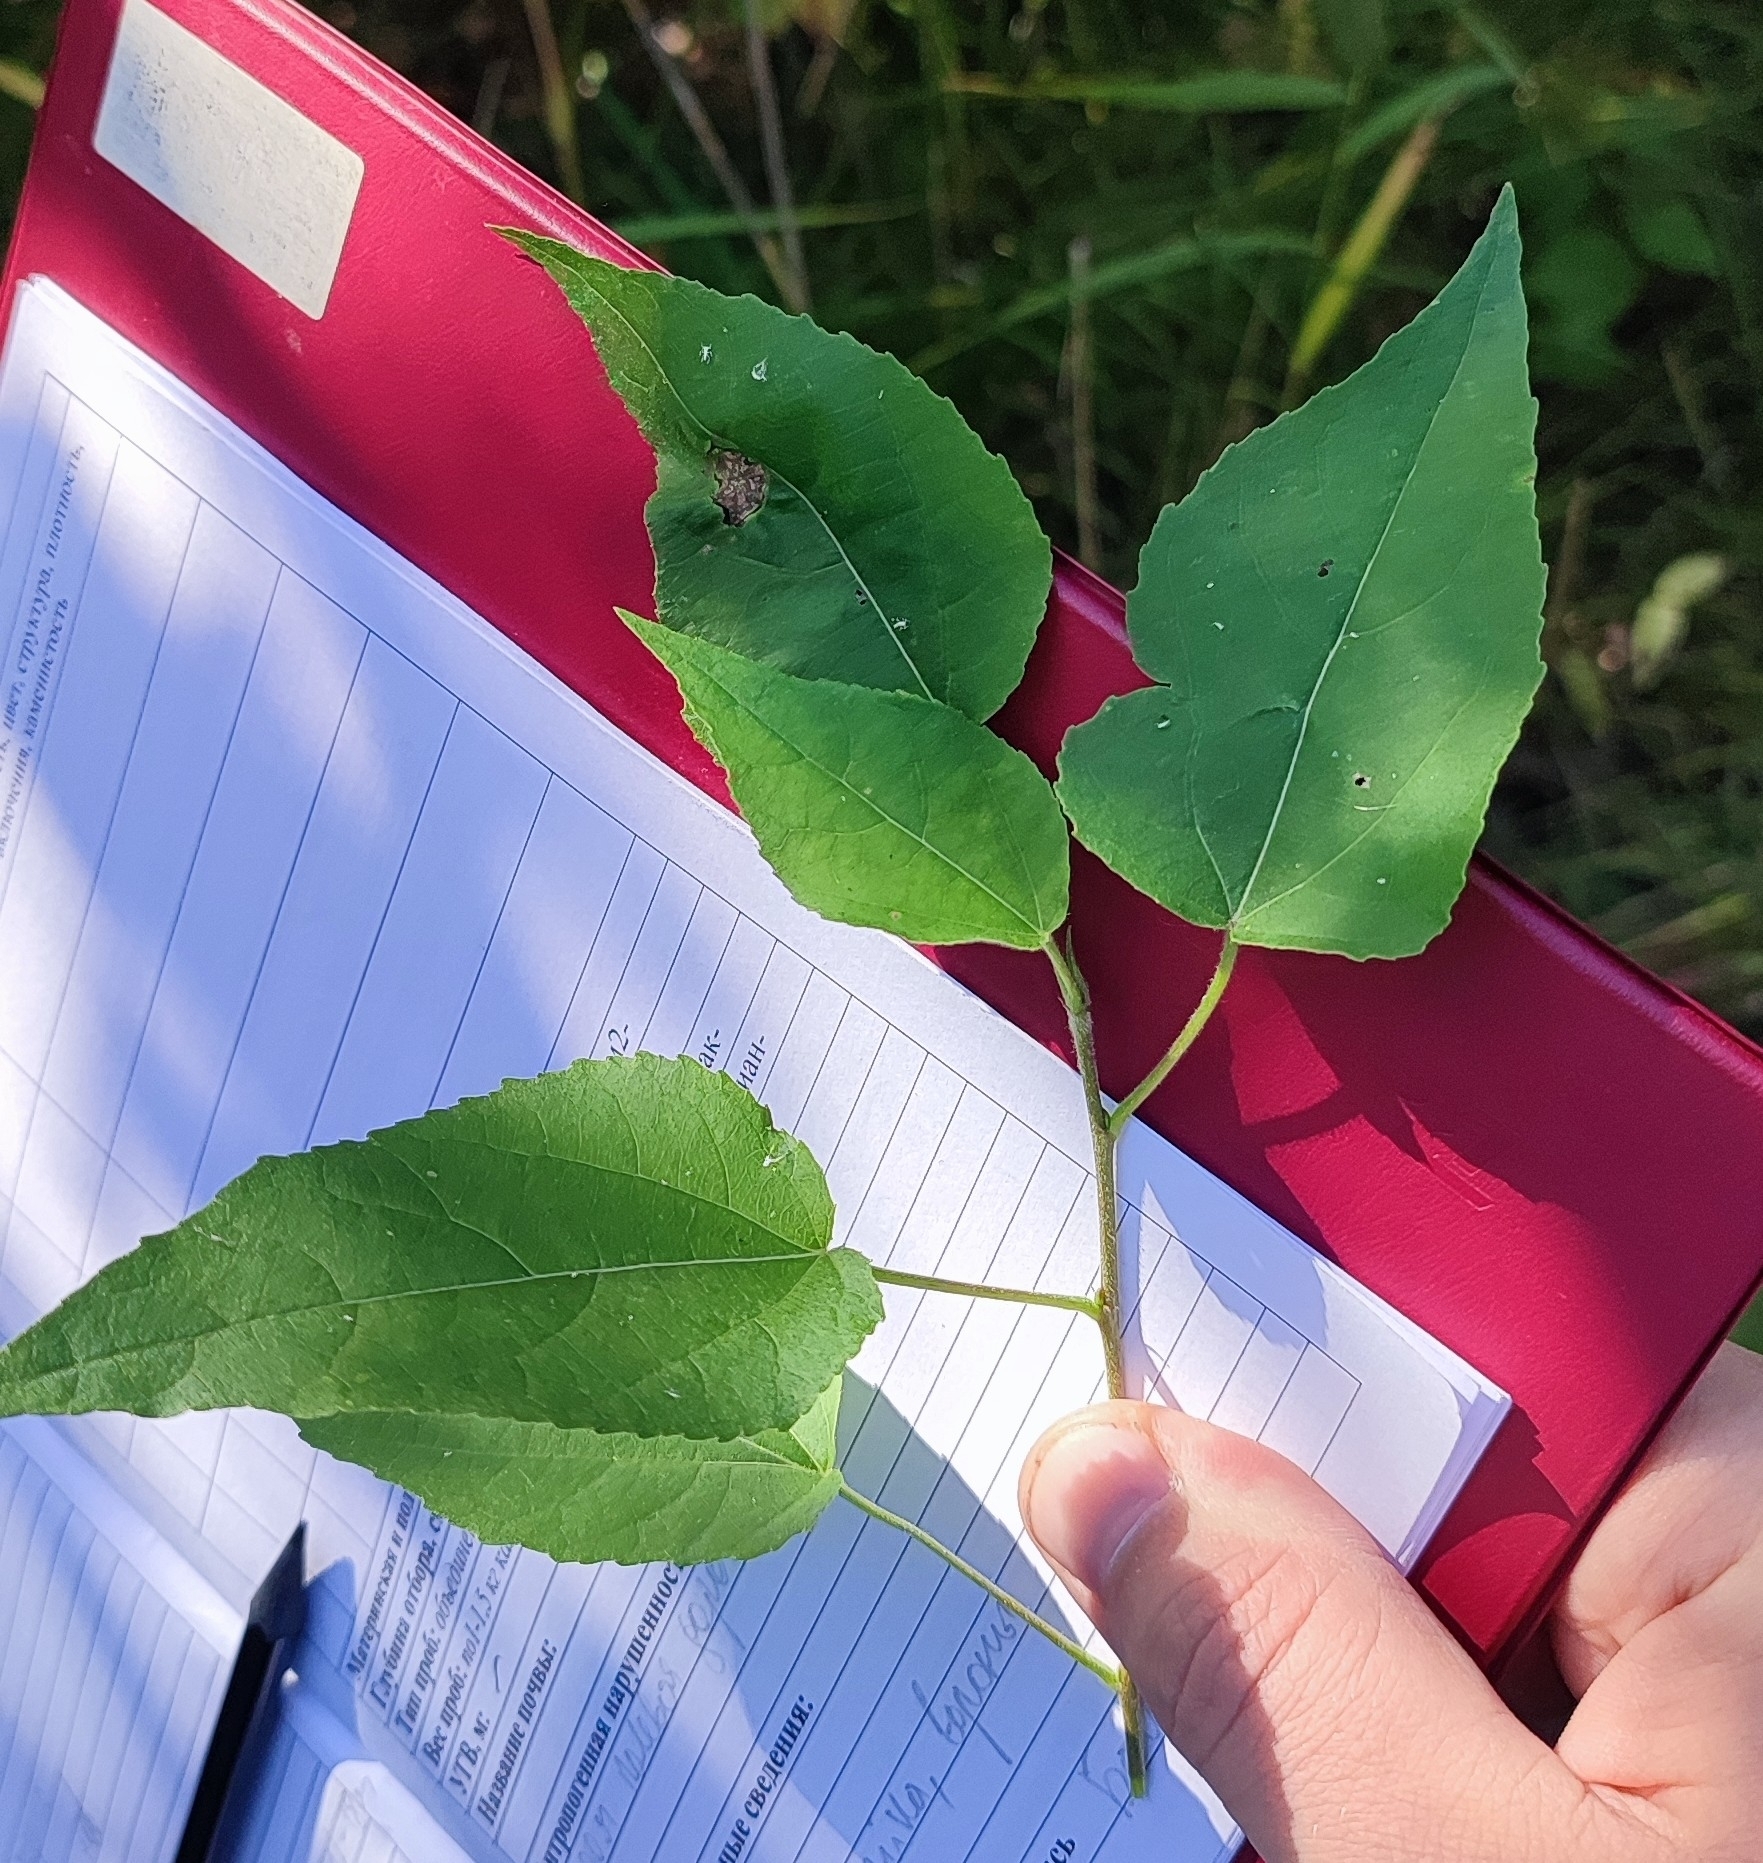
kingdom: Plantae
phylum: Tracheophyta
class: Magnoliopsida
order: Malpighiales
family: Salicaceae
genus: Populus
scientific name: Populus tremula
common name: European aspen
